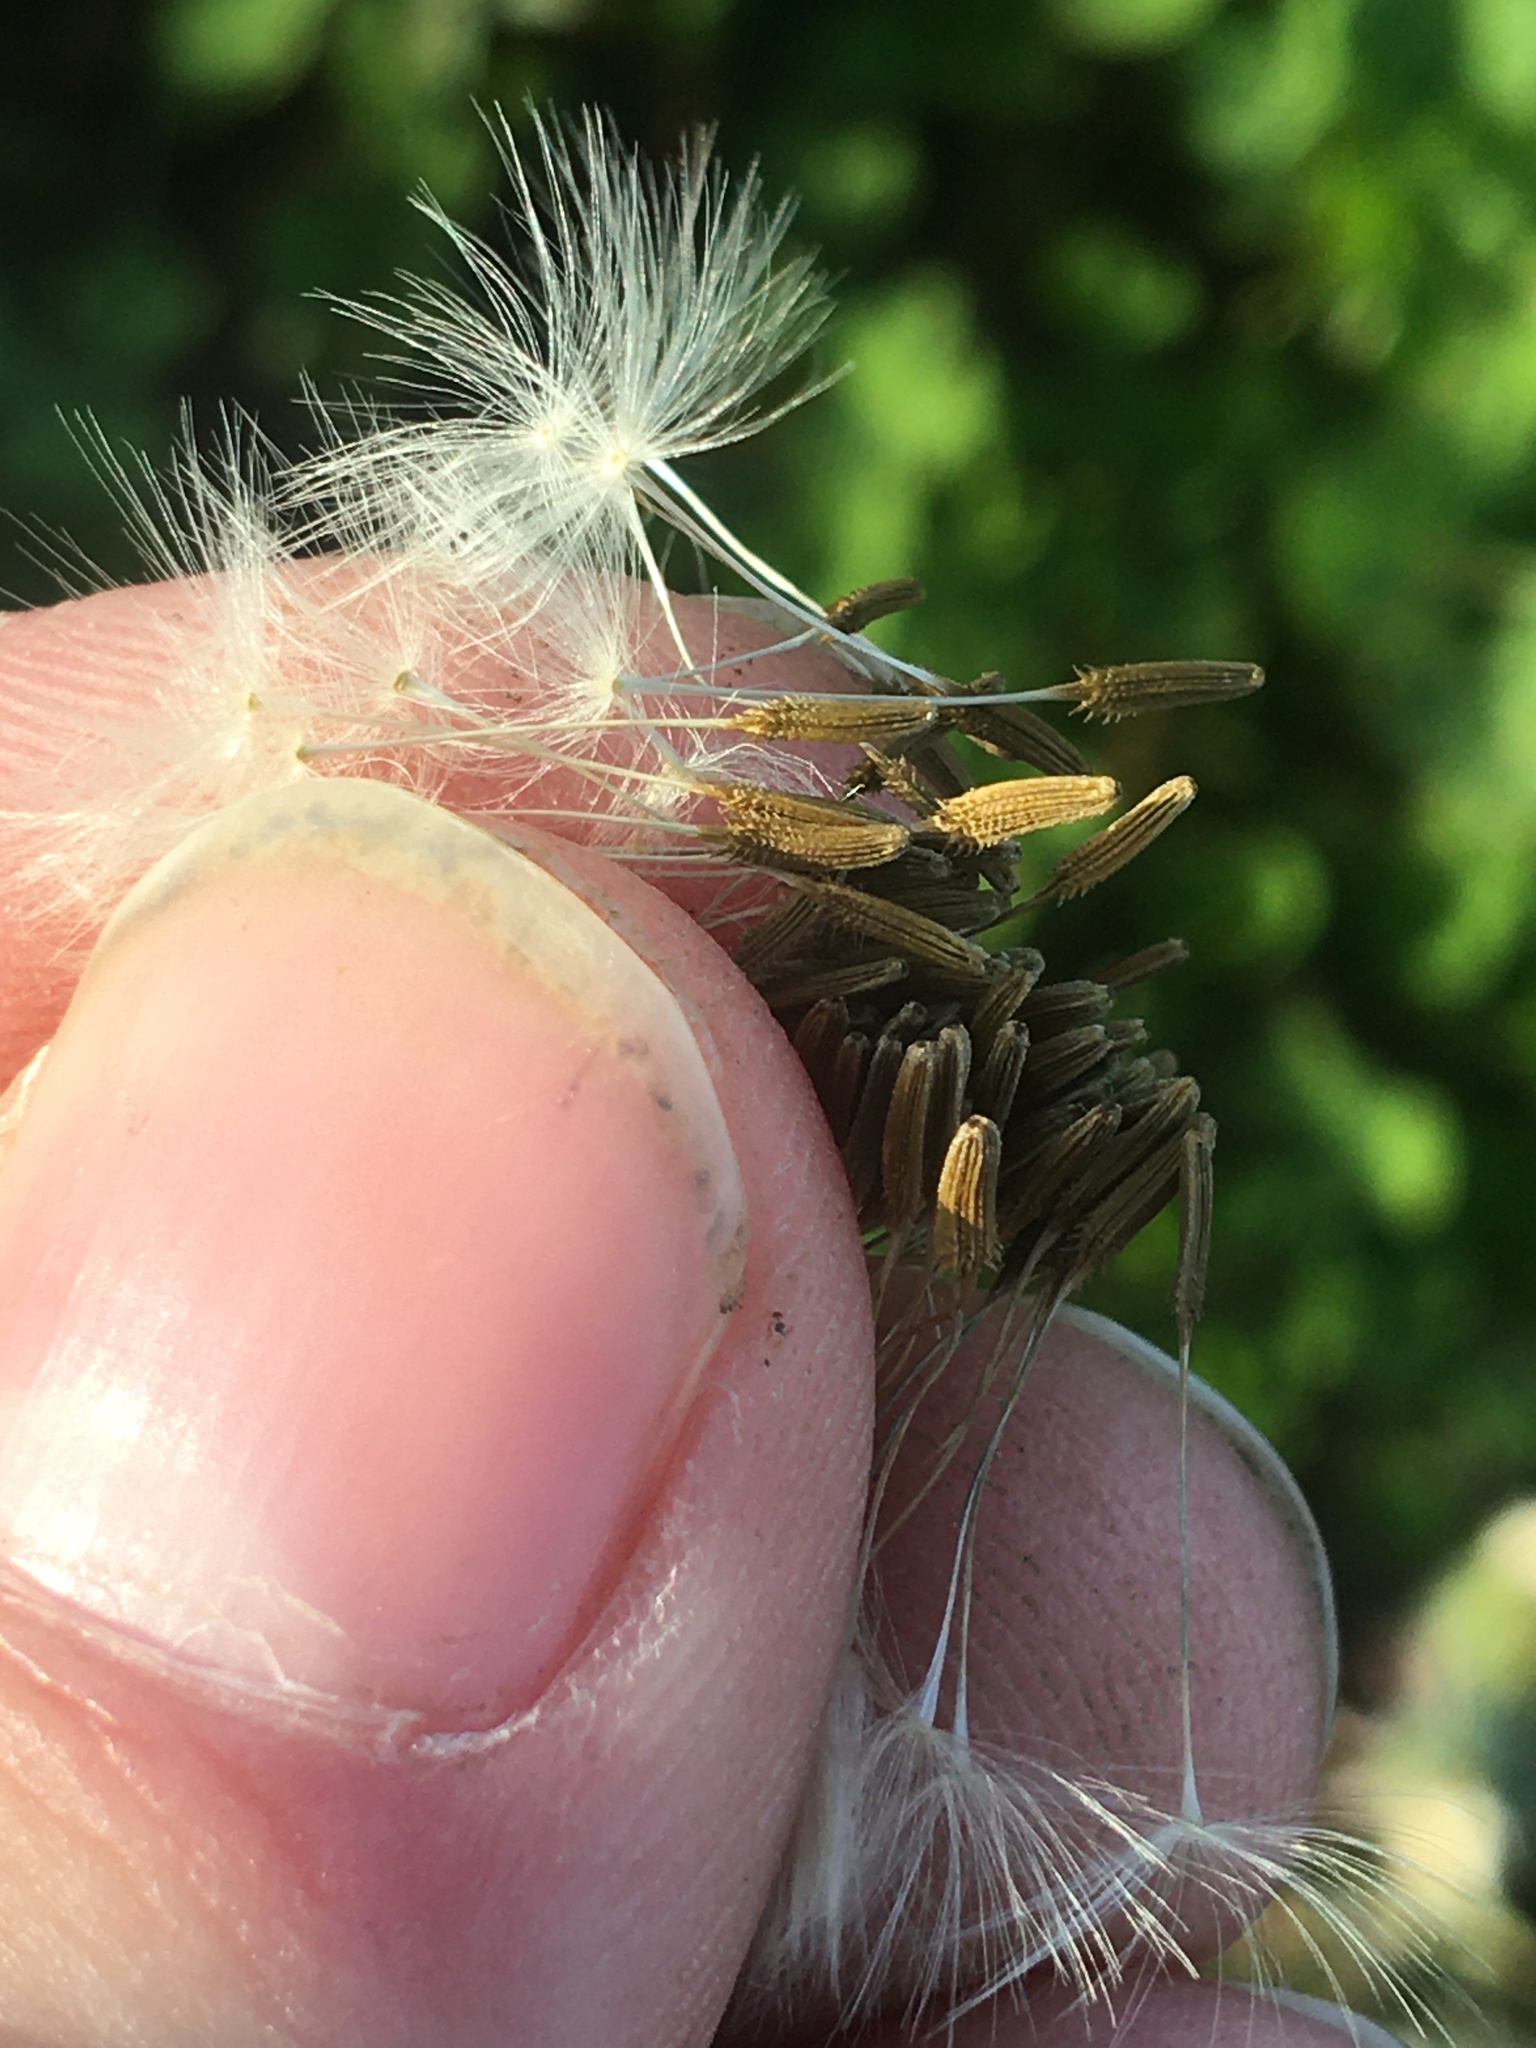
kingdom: Plantae
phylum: Tracheophyta
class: Magnoliopsida
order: Asterales
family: Asteraceae
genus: Taraxacum
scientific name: Taraxacum officinale
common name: Common dandelion
